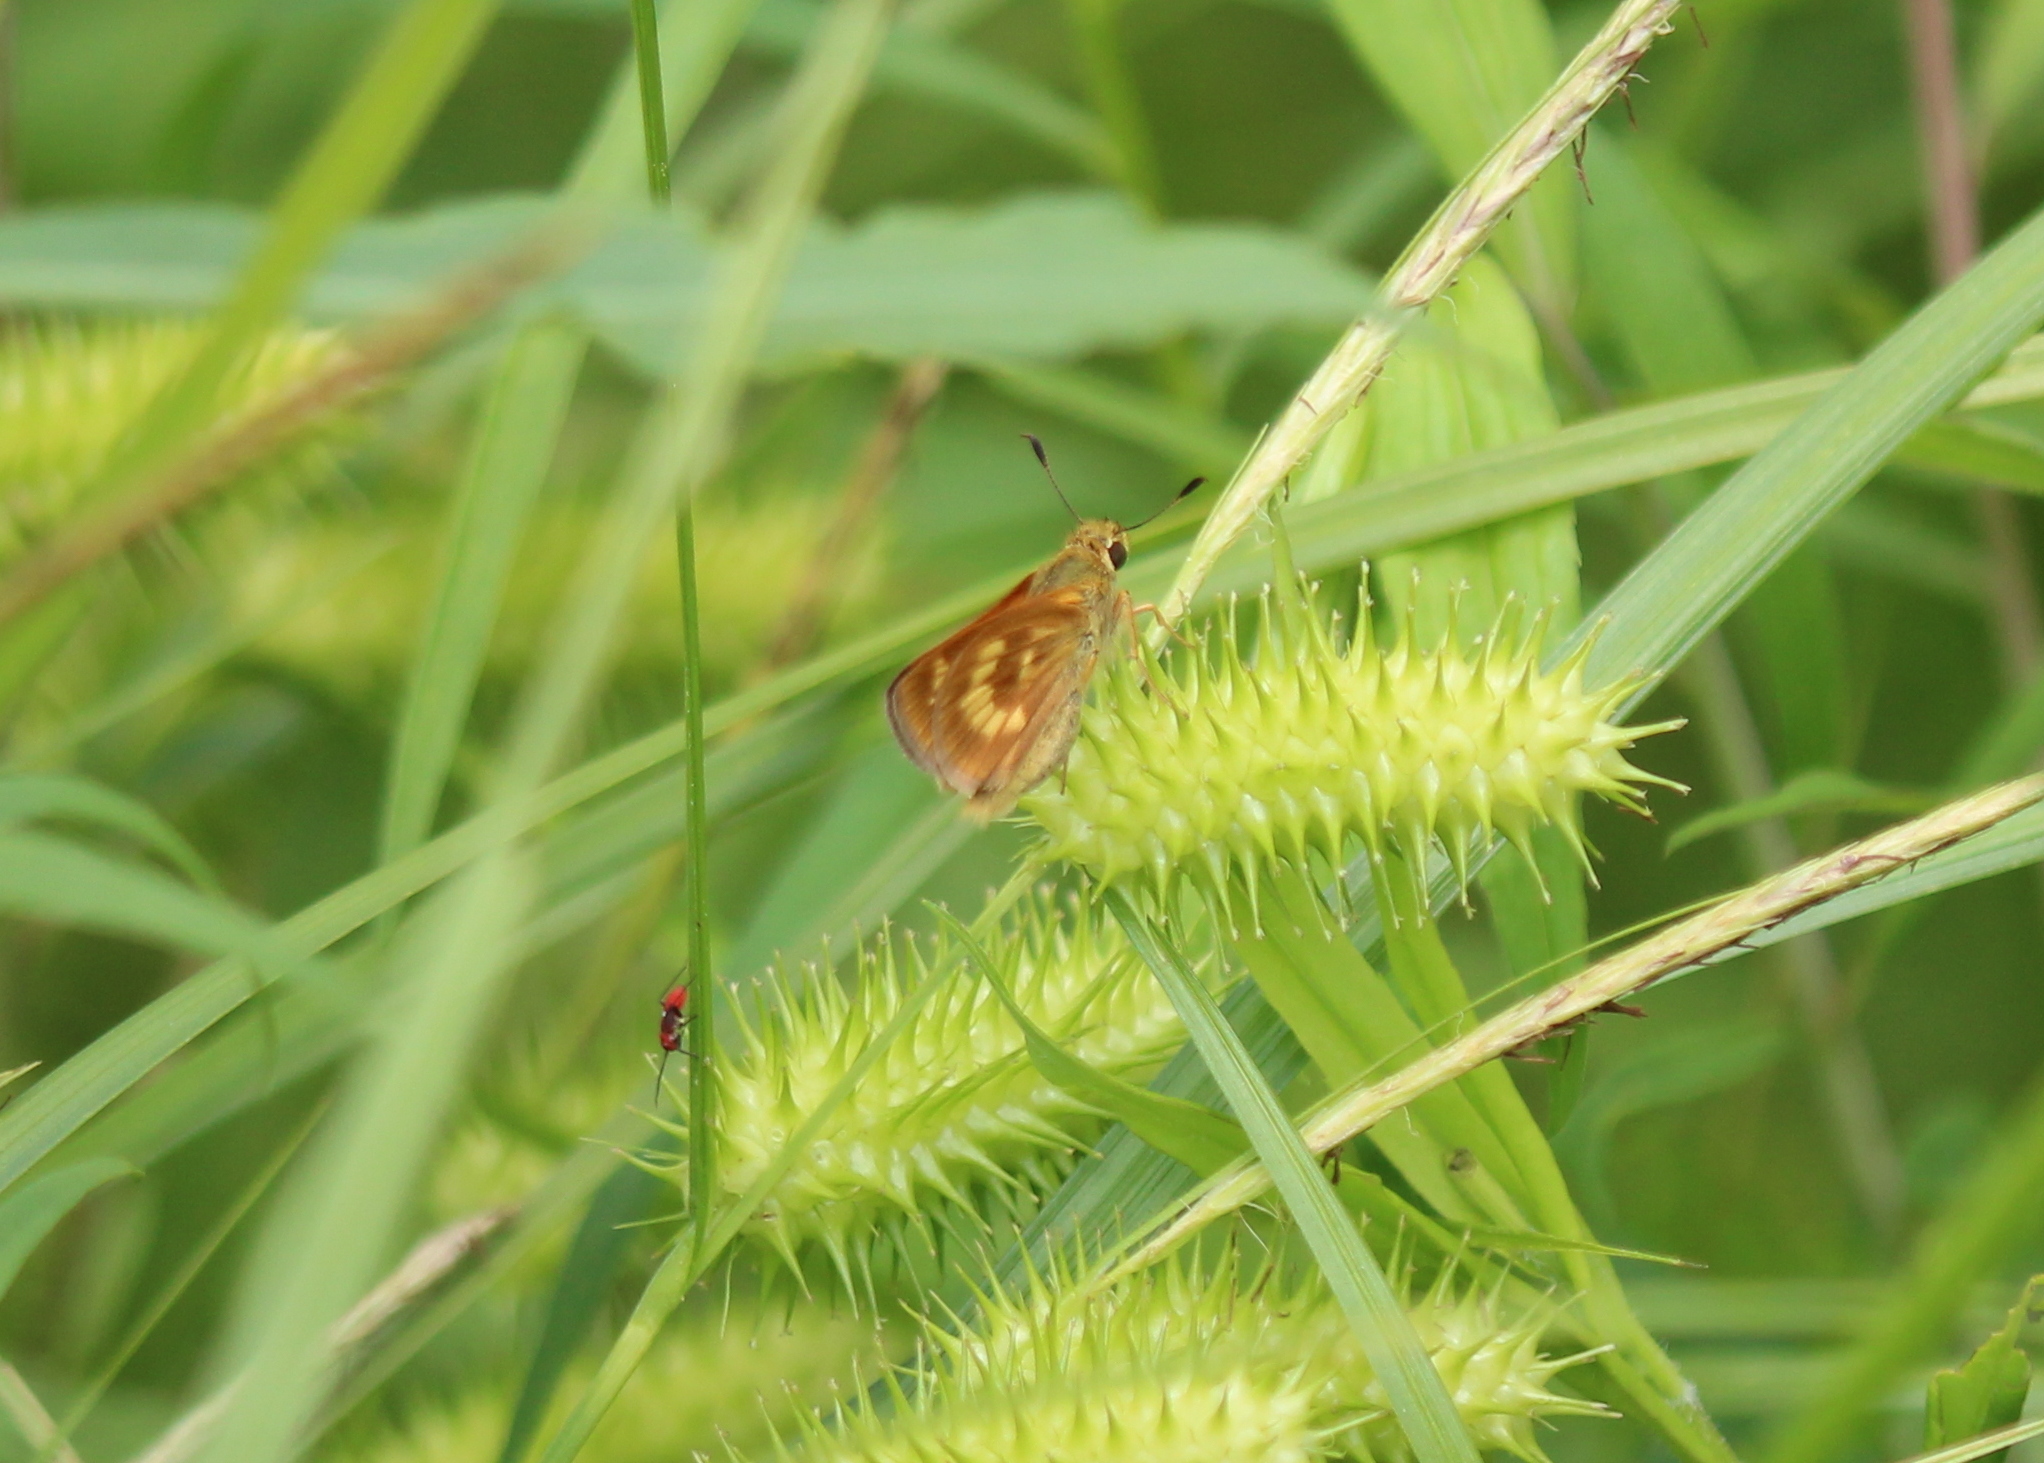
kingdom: Animalia
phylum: Arthropoda
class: Insecta
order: Lepidoptera
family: Hesperiidae
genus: Polites
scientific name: Polites mystic
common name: Long dash
